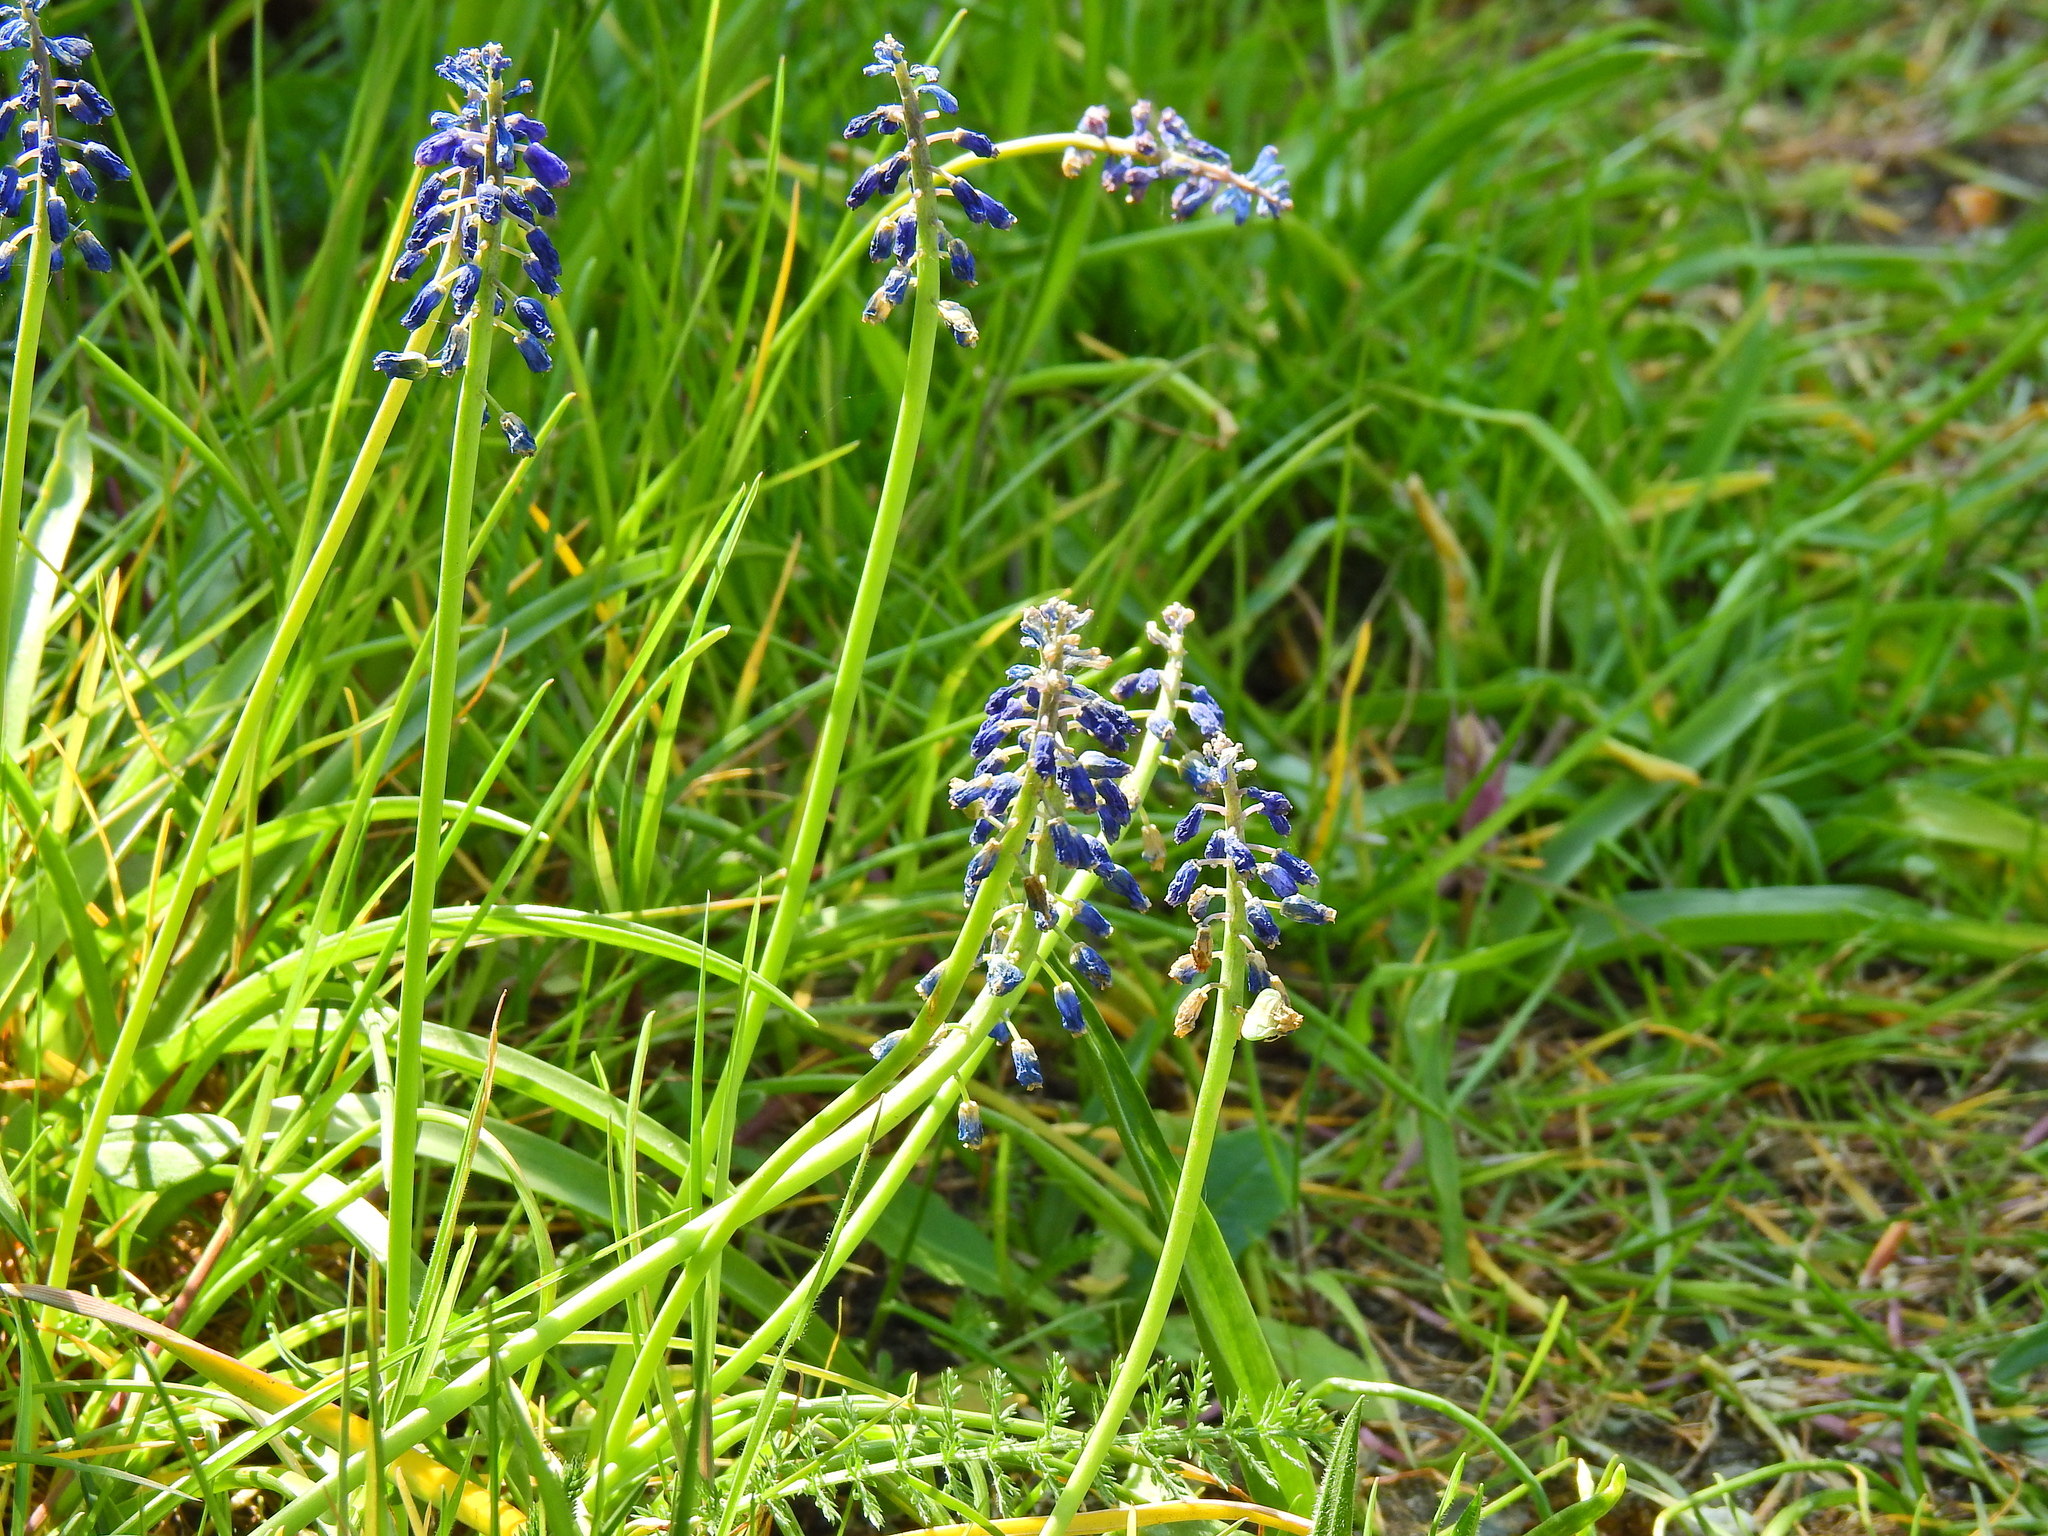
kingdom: Plantae
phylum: Tracheophyta
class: Liliopsida
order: Asparagales
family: Asparagaceae
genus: Muscari
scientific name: Muscari armeniacum
